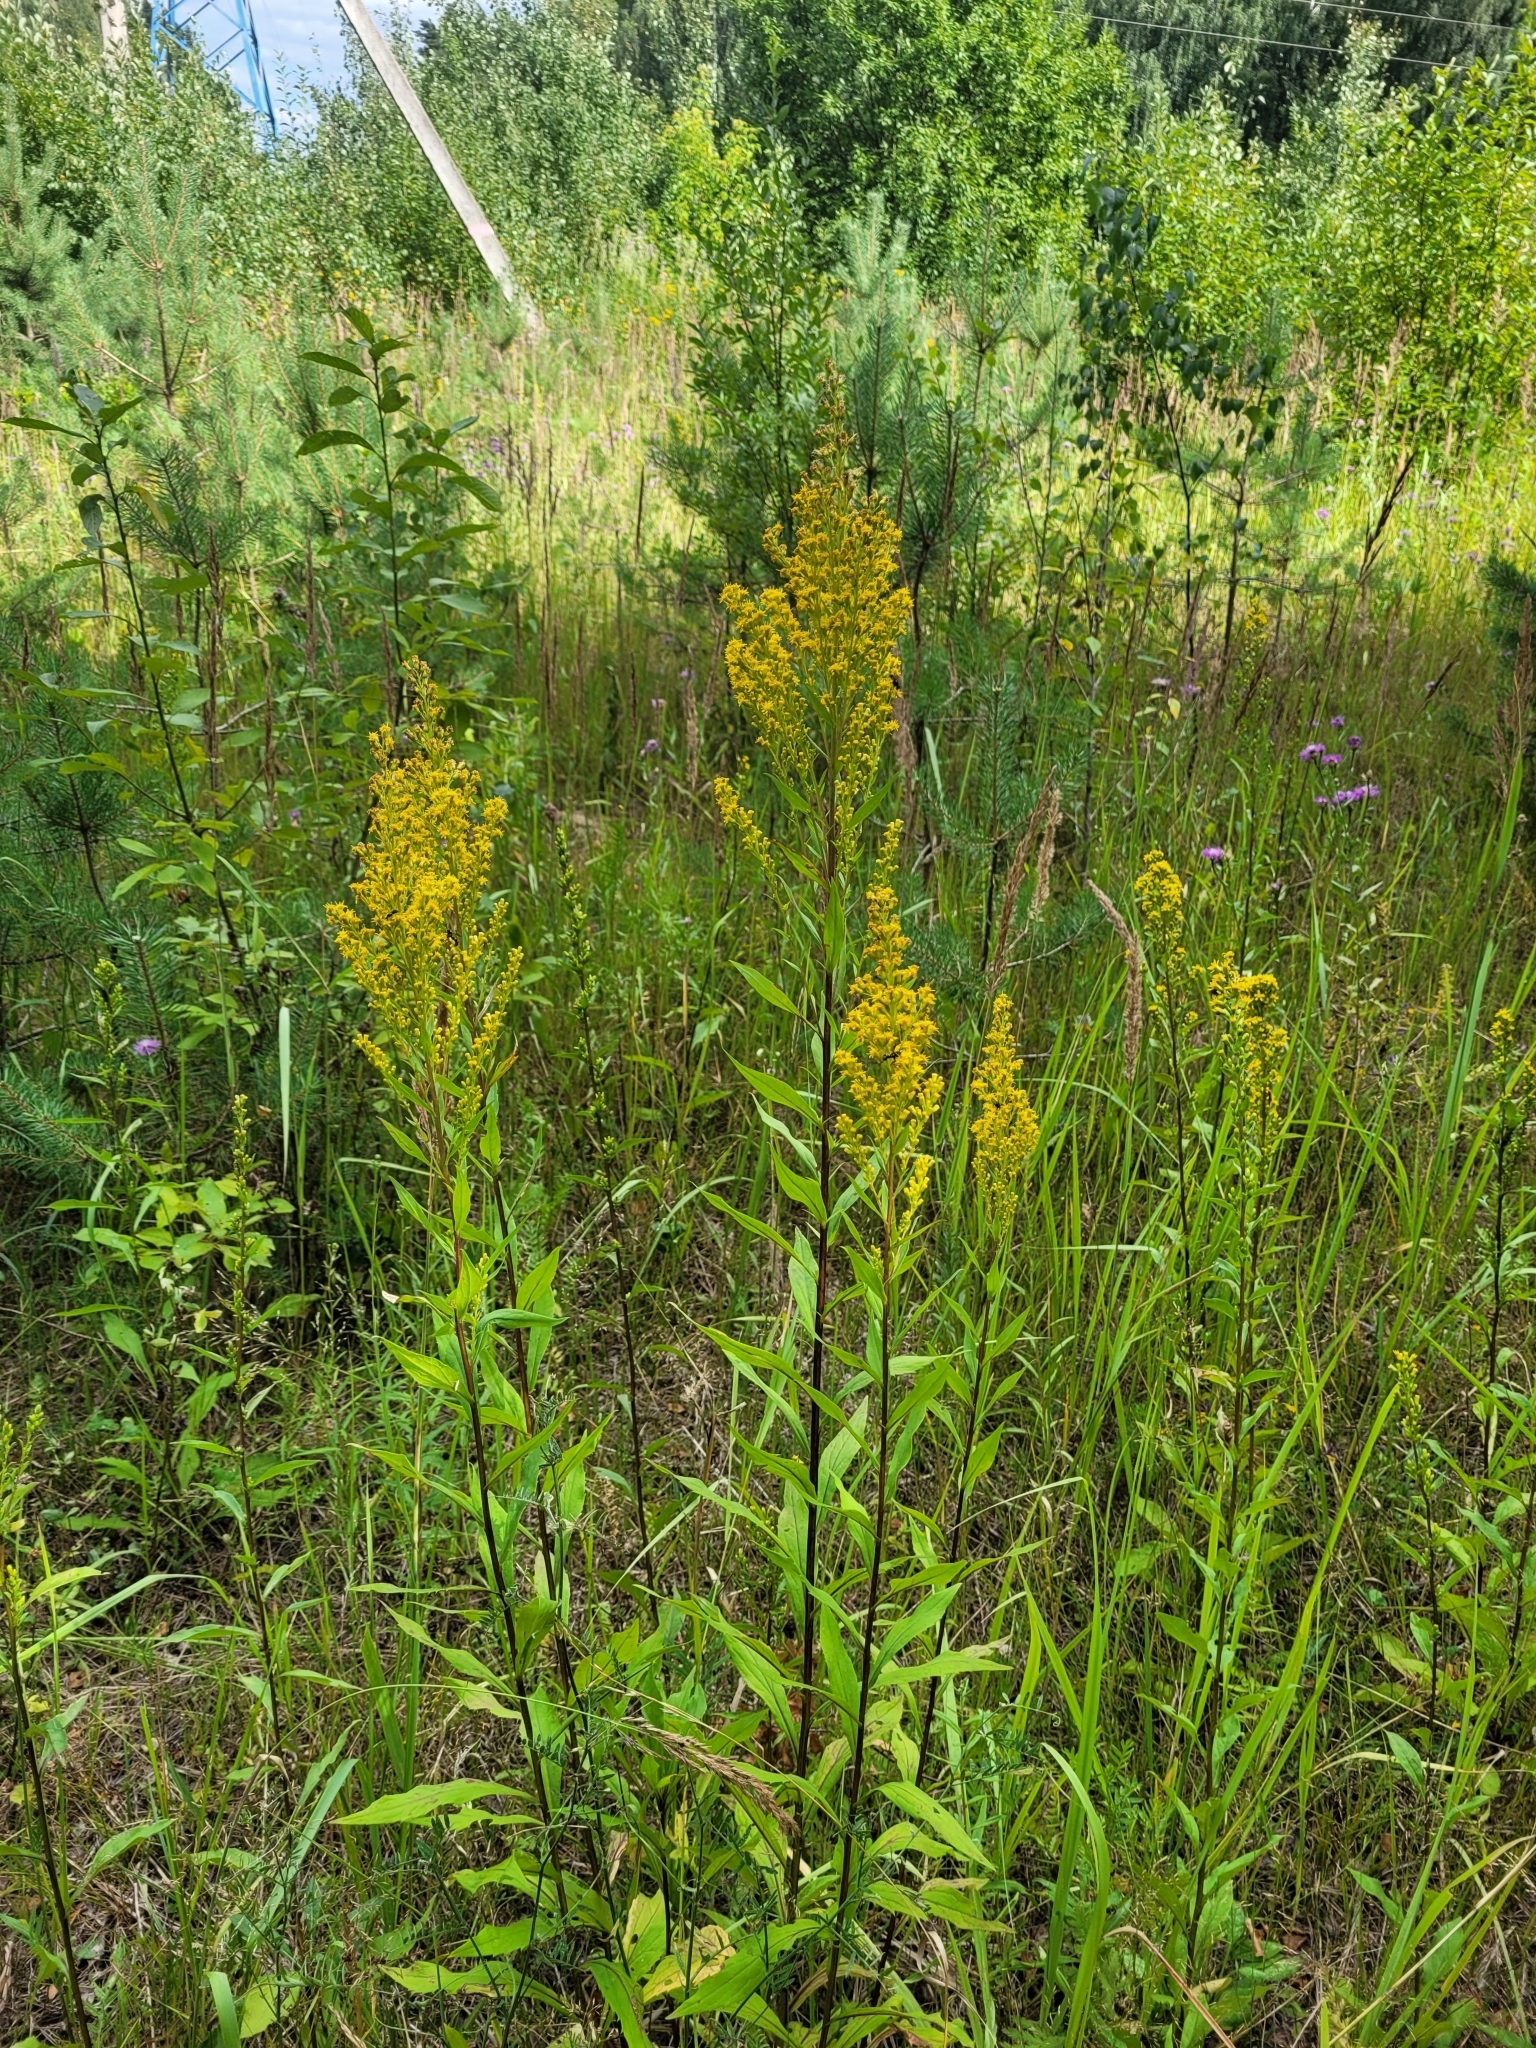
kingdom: Plantae
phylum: Tracheophyta
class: Magnoliopsida
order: Asterales
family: Asteraceae
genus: Solidago
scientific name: Solidago niederederi
